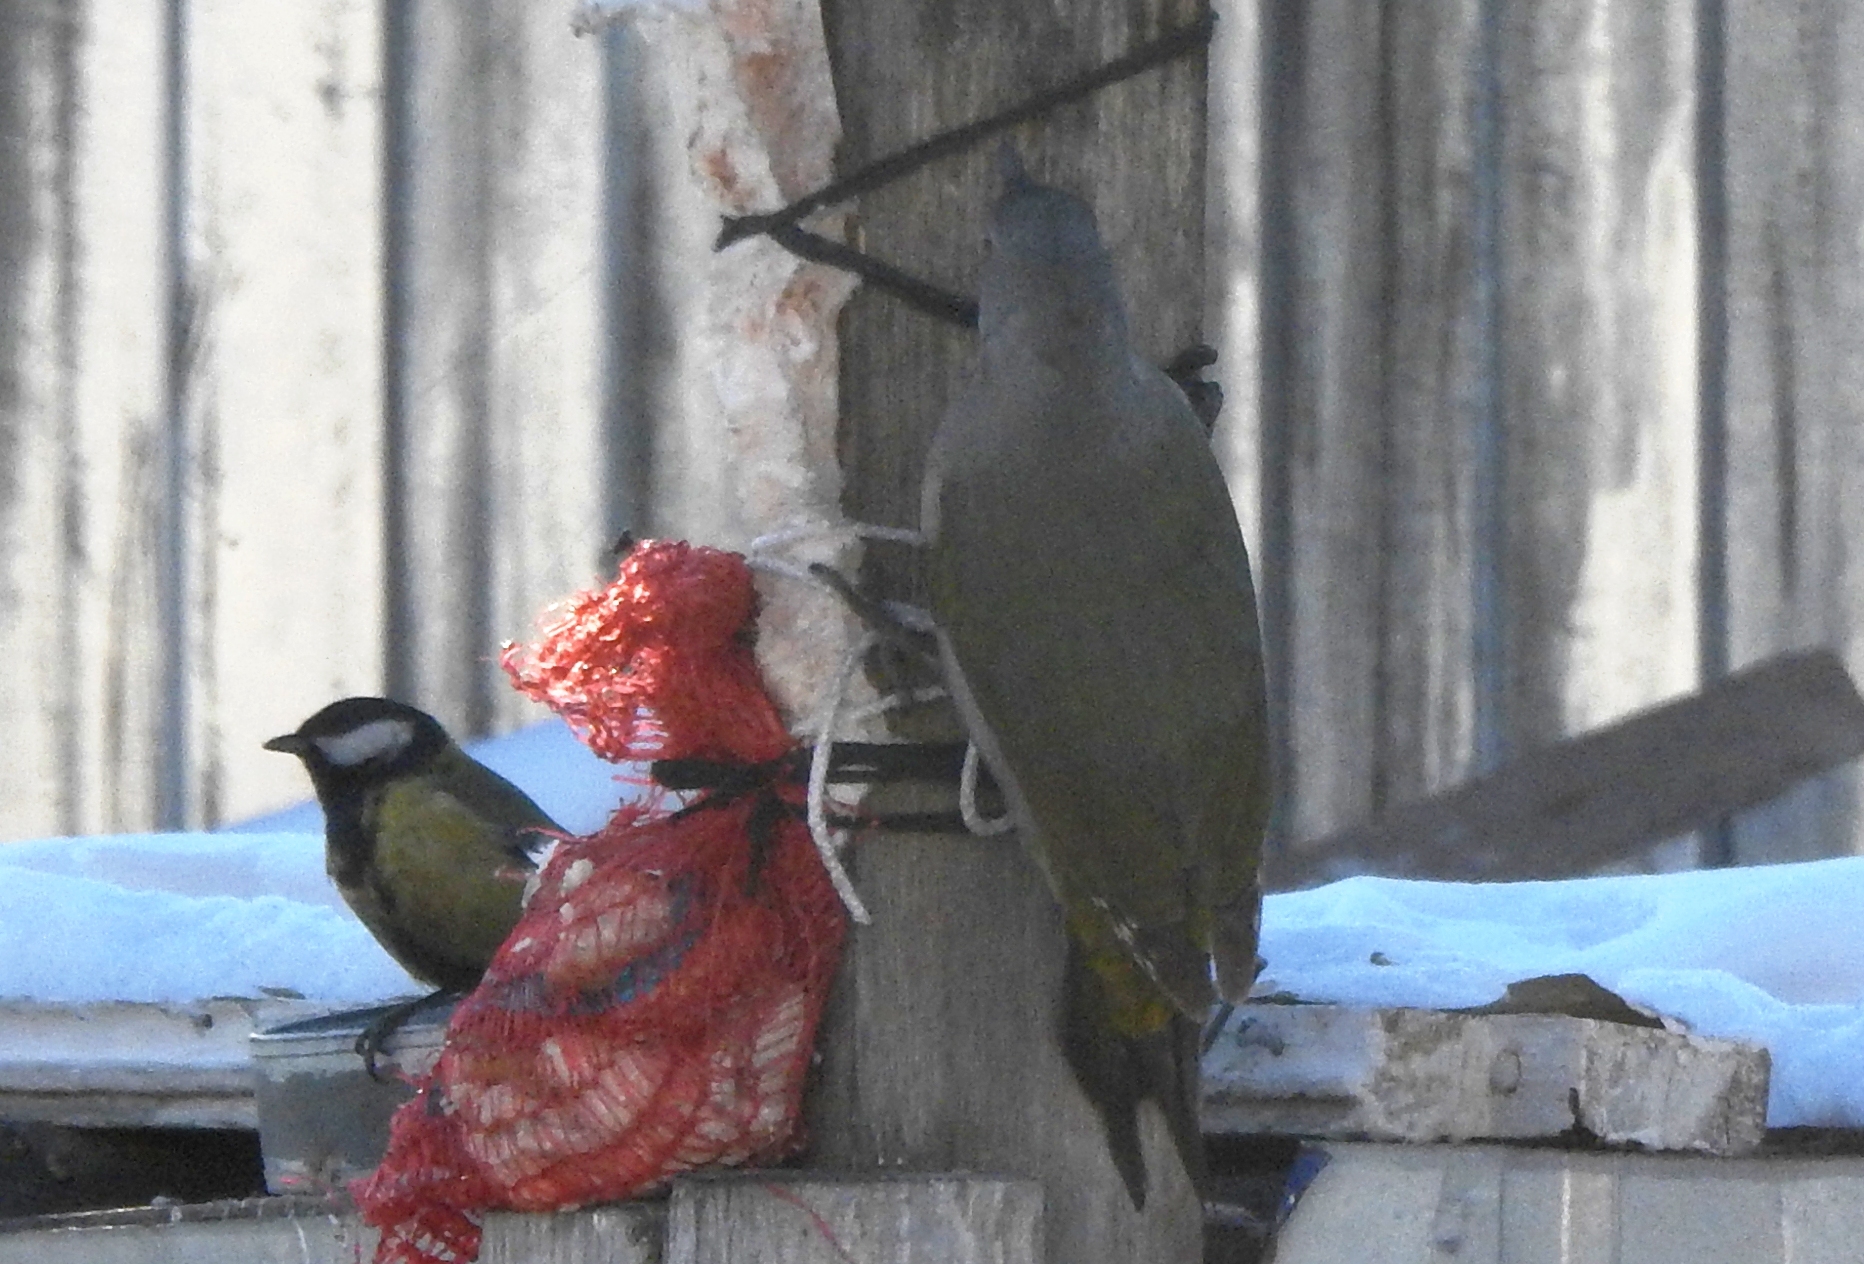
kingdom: Animalia
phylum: Chordata
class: Aves
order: Passeriformes
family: Paridae
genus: Parus
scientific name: Parus major
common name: Great tit
